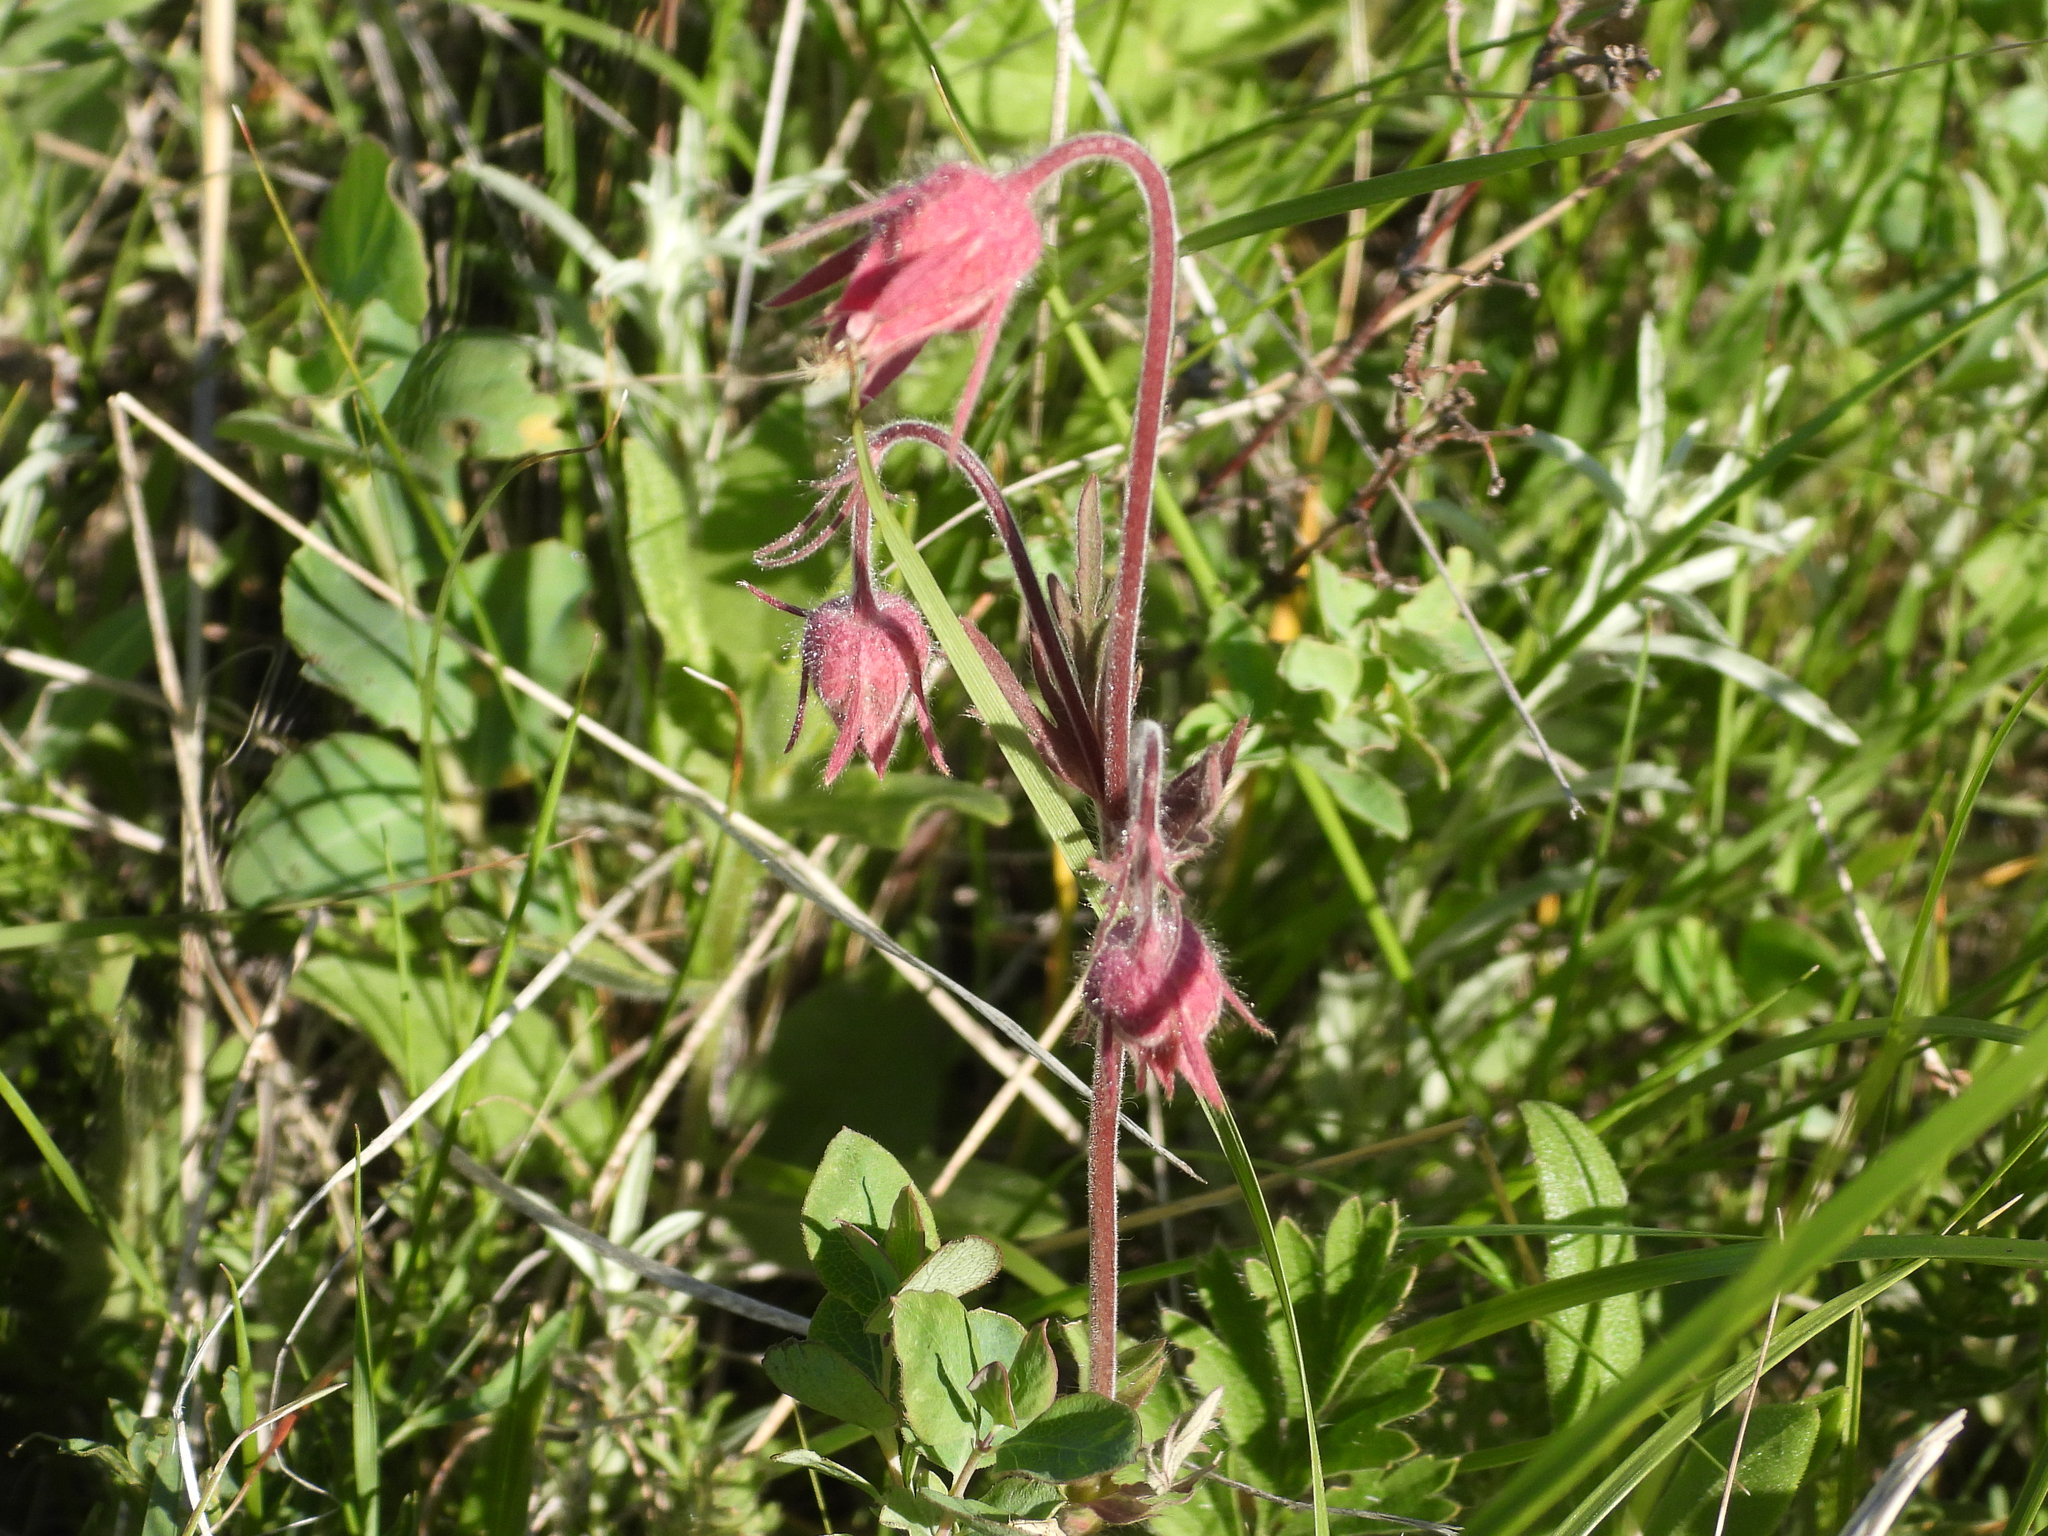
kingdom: Plantae
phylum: Tracheophyta
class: Magnoliopsida
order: Rosales
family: Rosaceae
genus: Geum
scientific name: Geum triflorum
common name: Old man's whiskers
